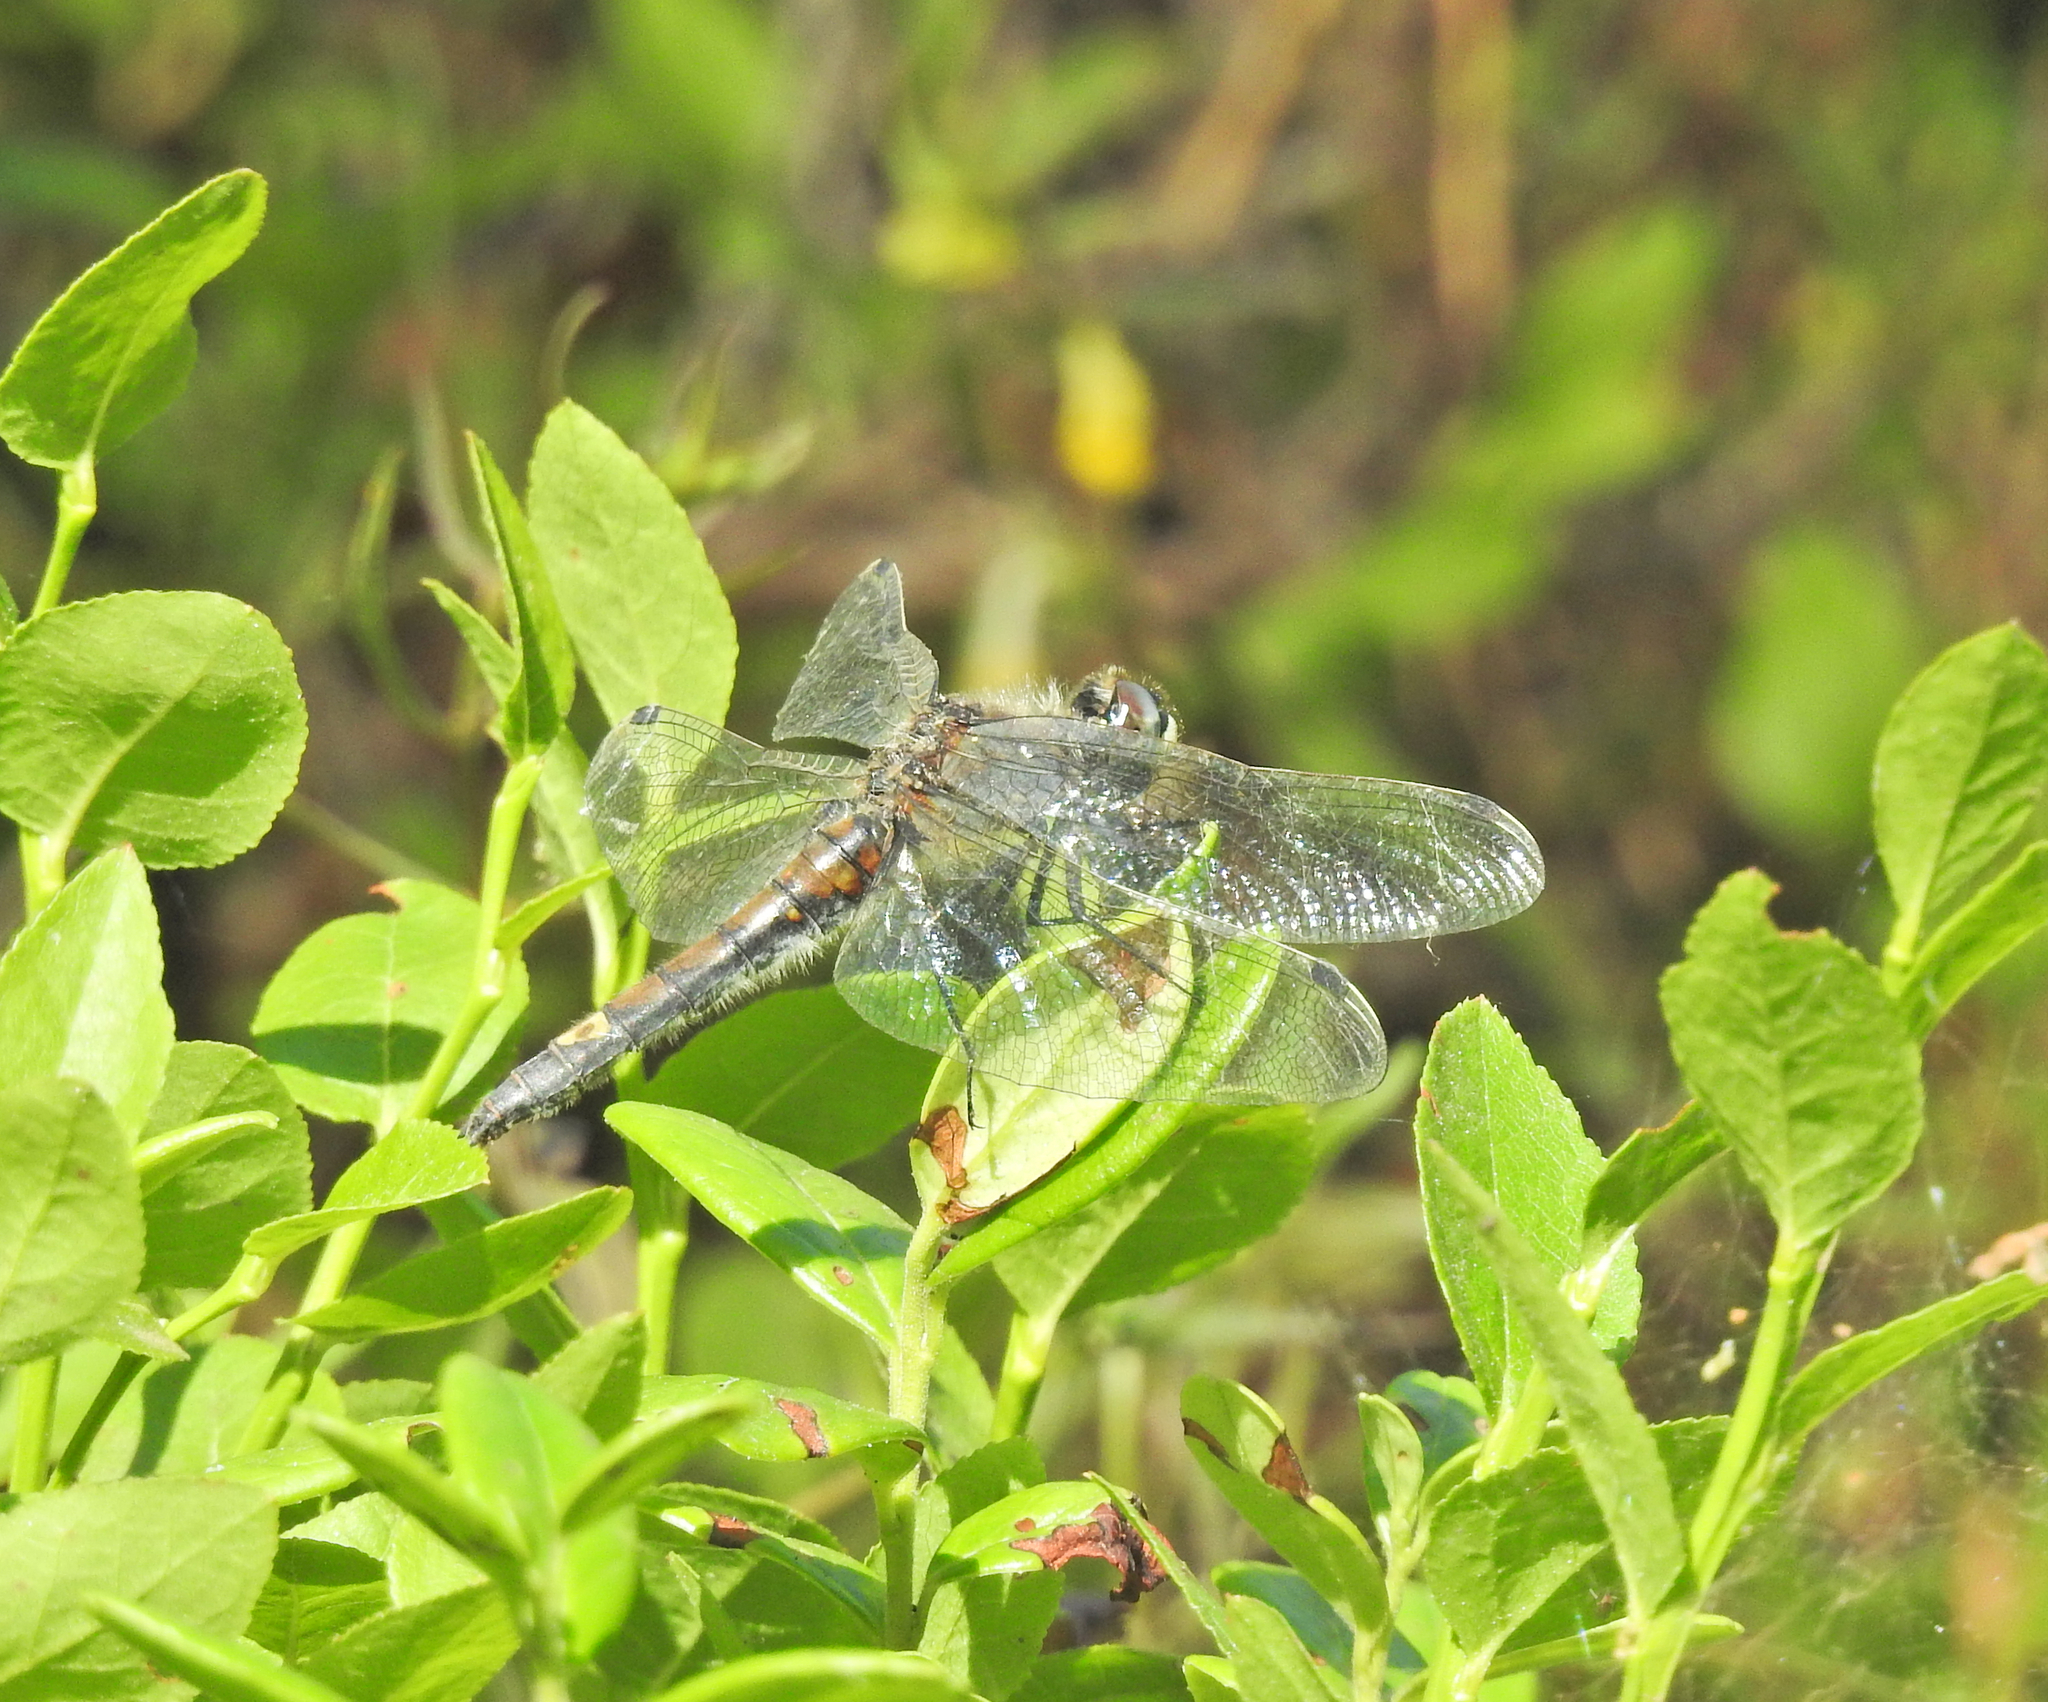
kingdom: Animalia
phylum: Arthropoda
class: Insecta
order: Odonata
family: Libellulidae
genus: Leucorrhinia
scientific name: Leucorrhinia pectoralis
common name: Yellow-spotted whiteface
